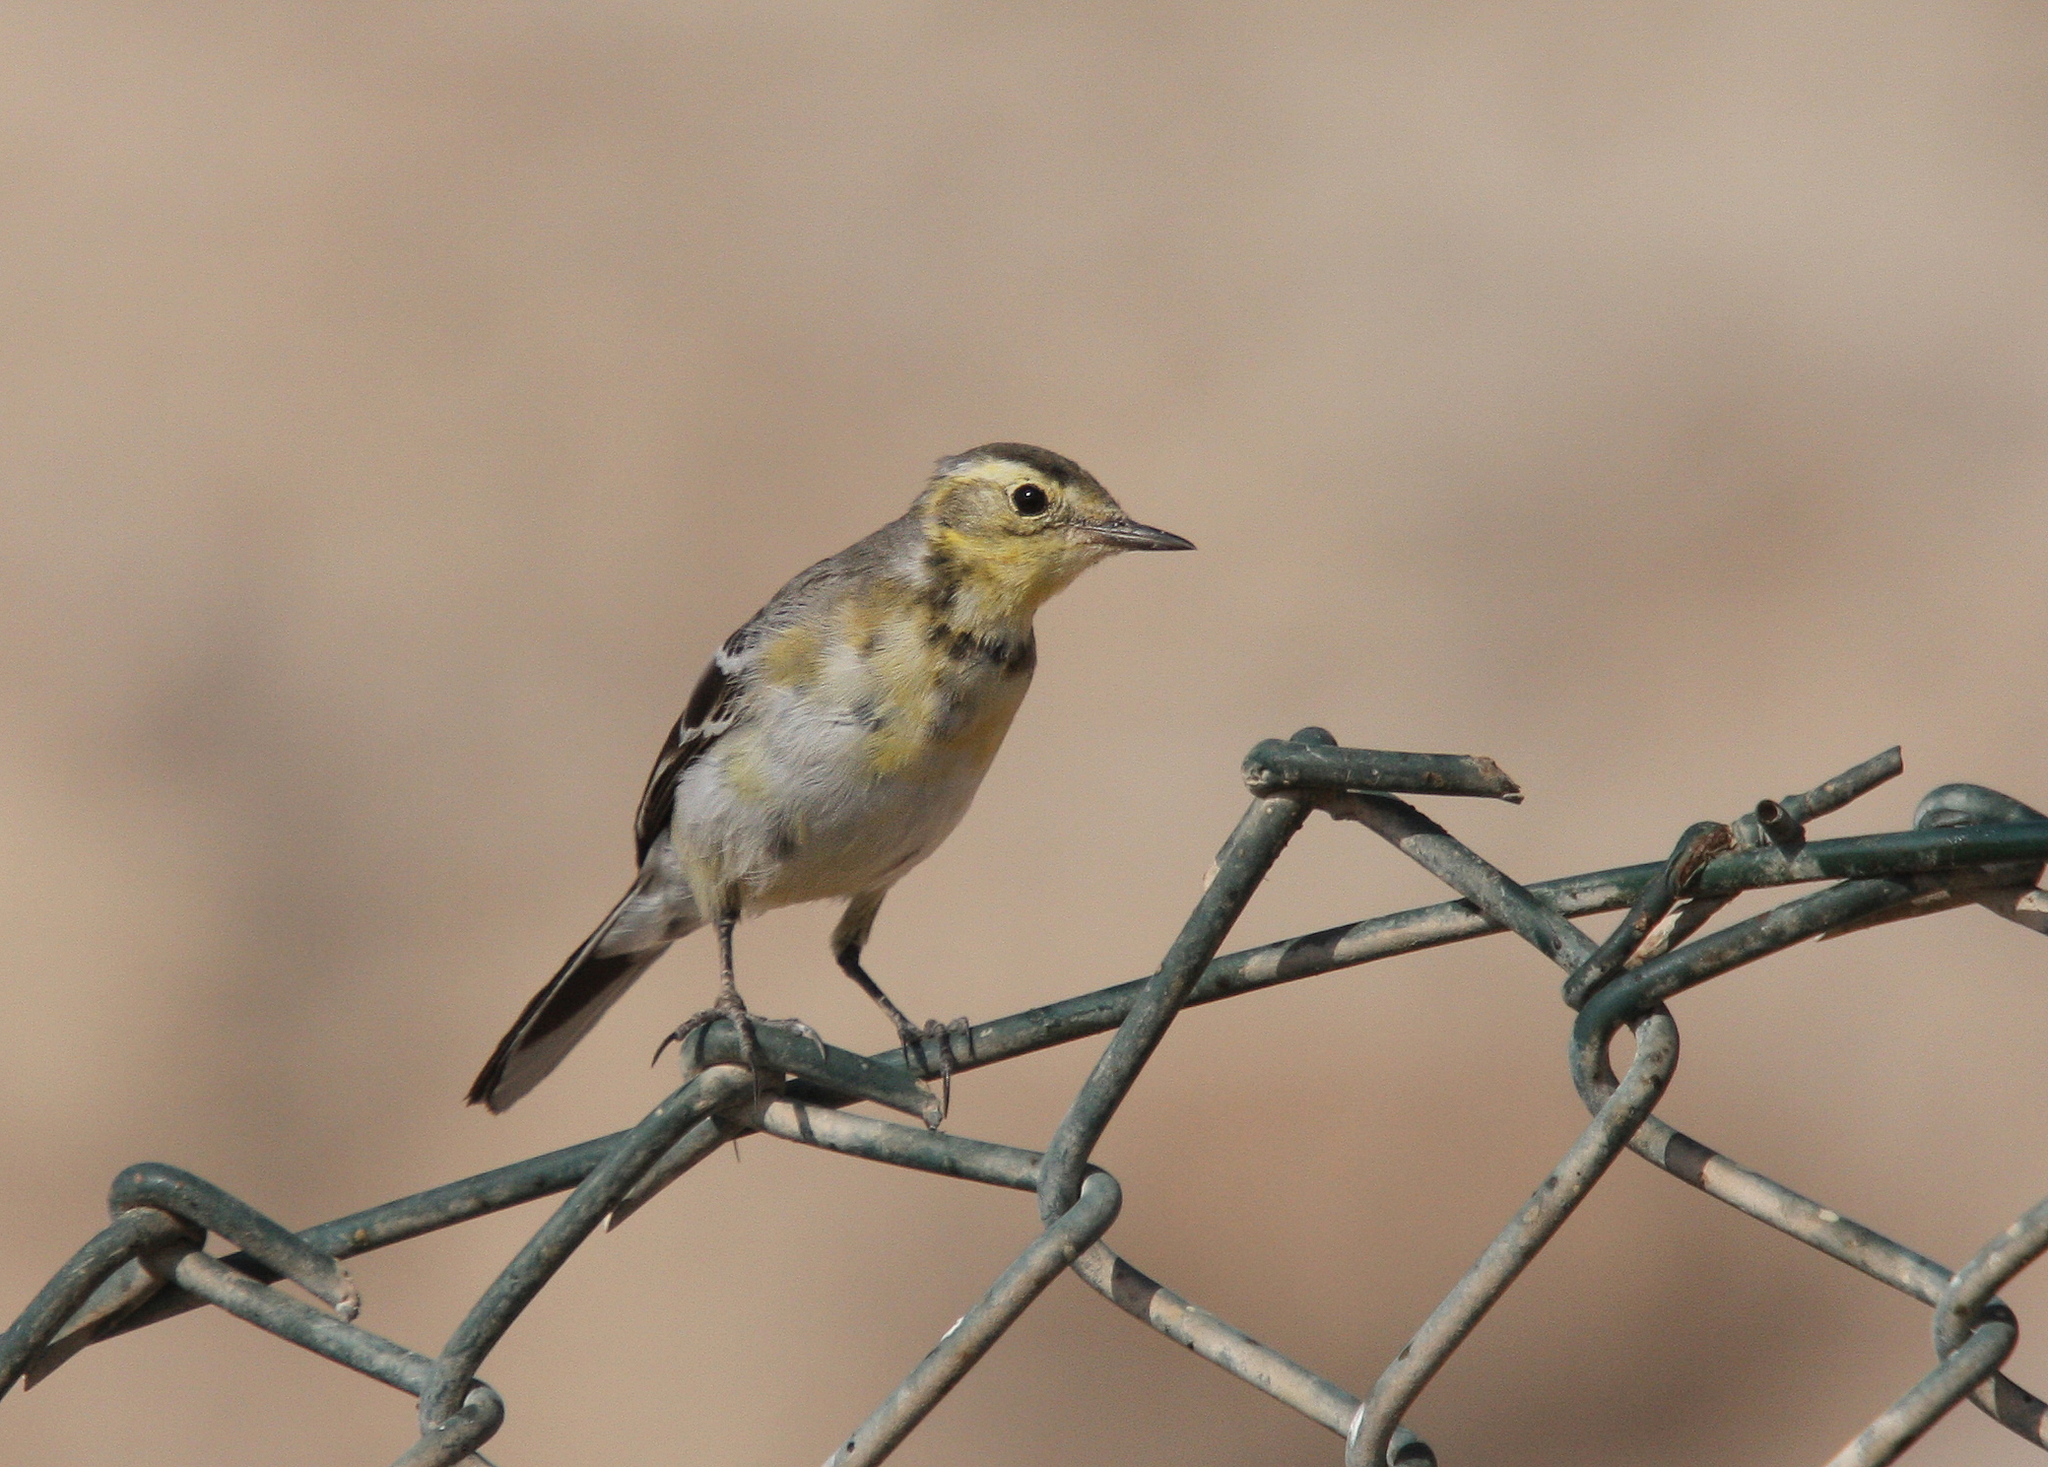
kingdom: Animalia
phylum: Chordata
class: Aves
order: Passeriformes
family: Motacillidae
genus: Motacilla
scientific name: Motacilla citreola
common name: Citrine wagtail
